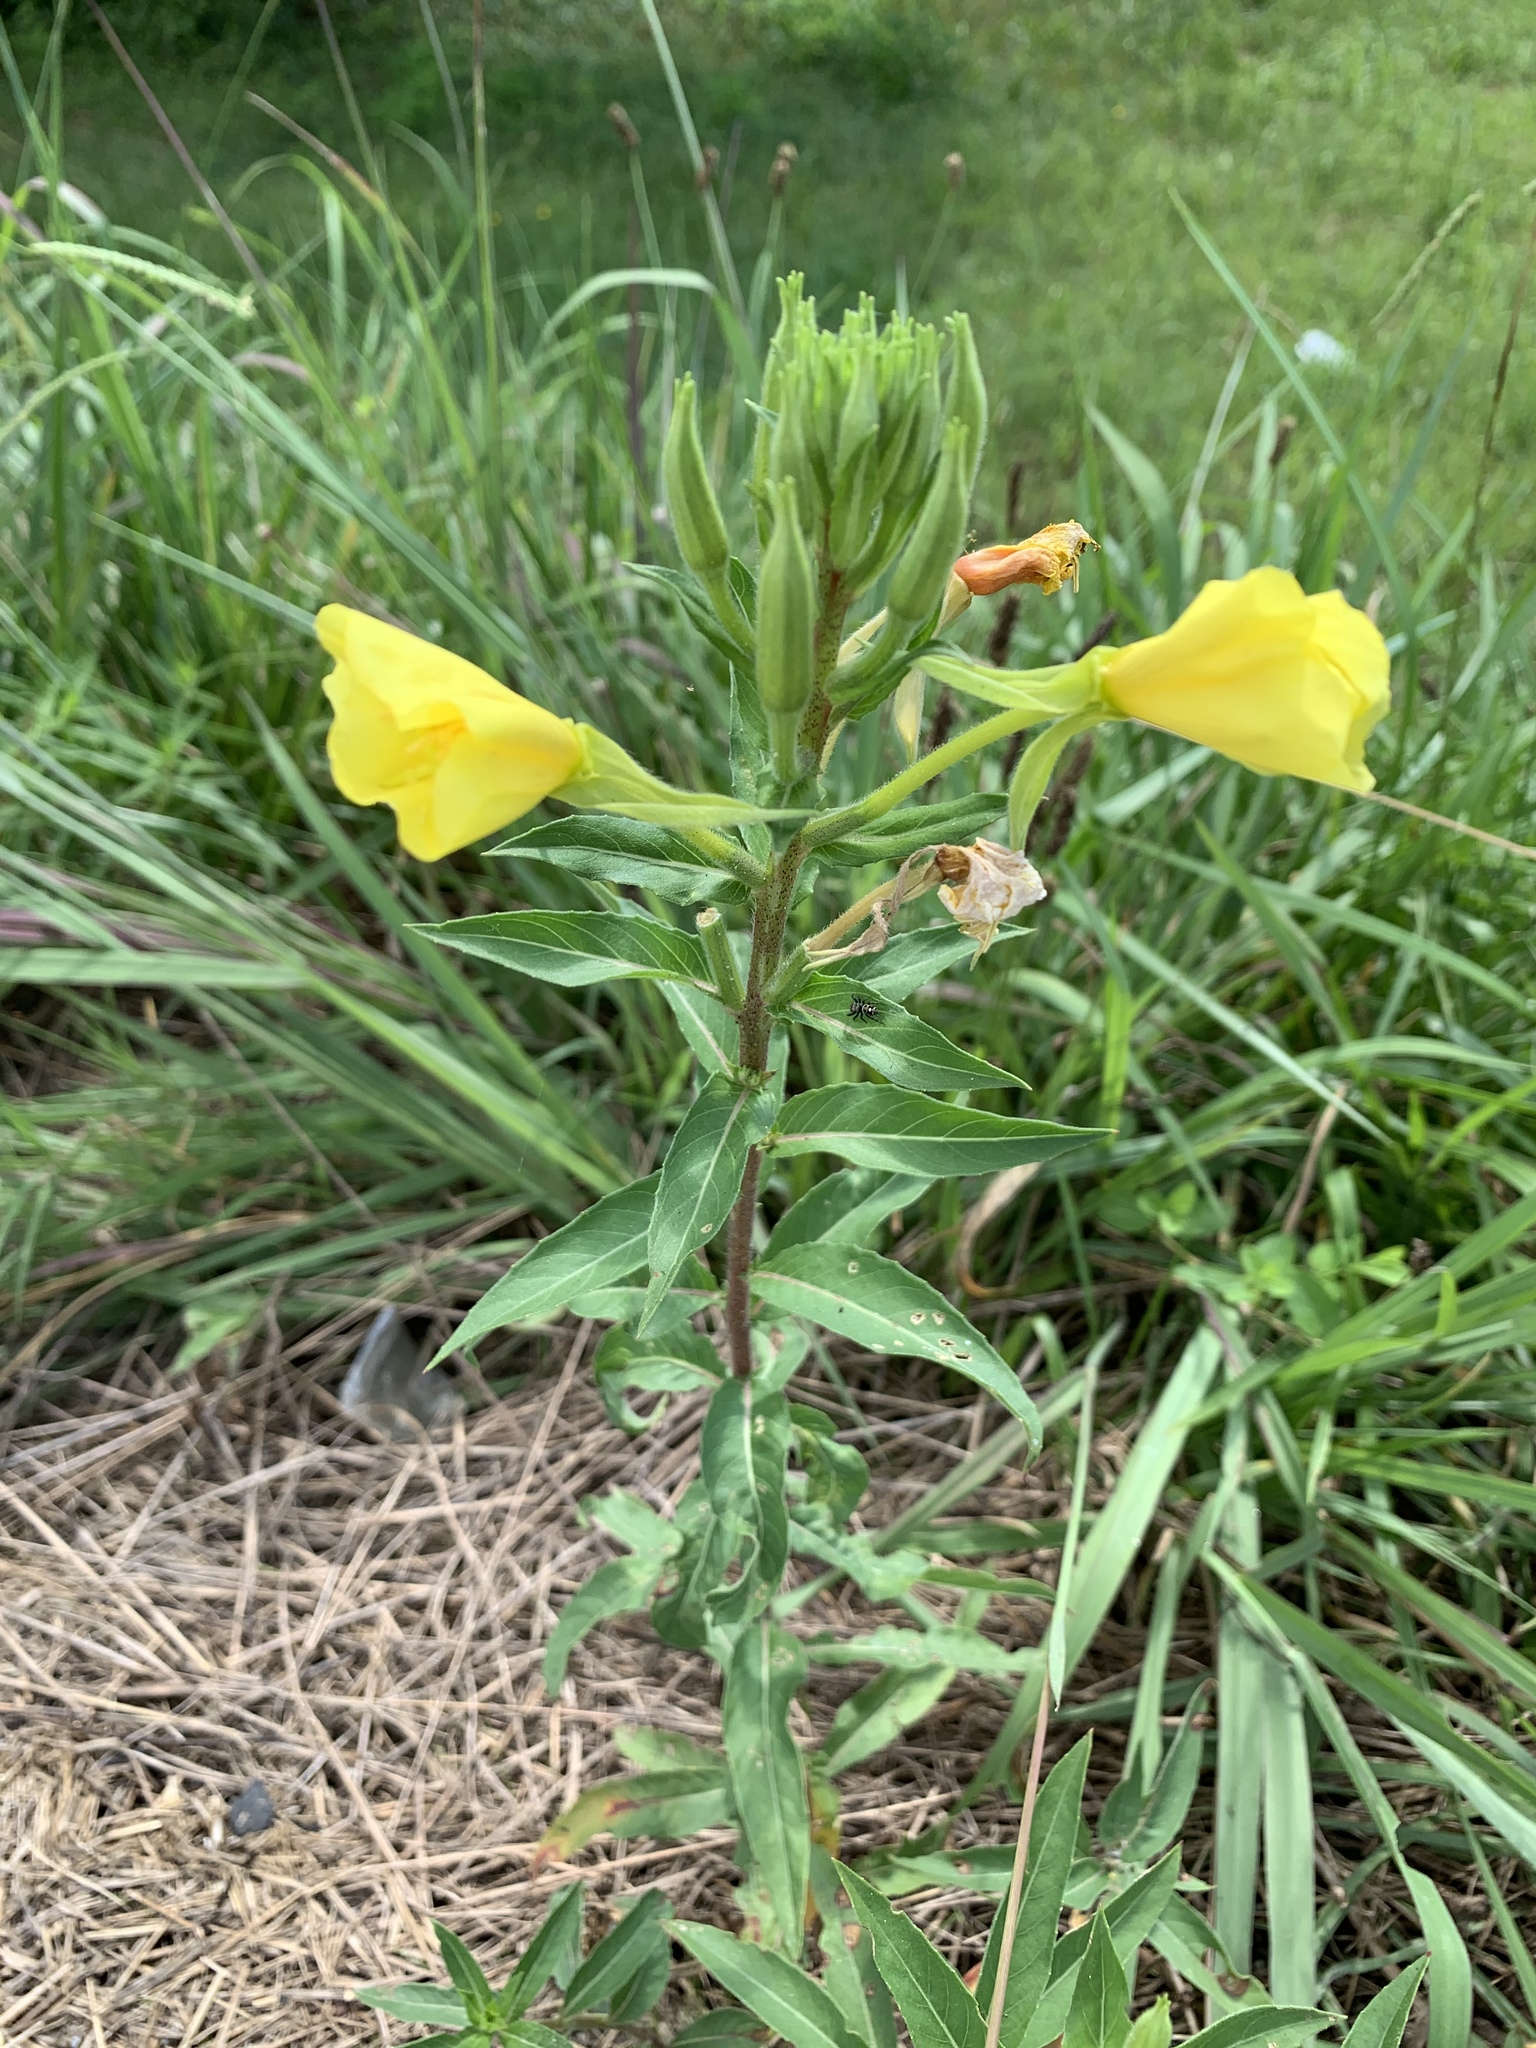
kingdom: Plantae
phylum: Tracheophyta
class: Magnoliopsida
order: Myrtales
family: Onagraceae
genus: Oenothera
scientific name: Oenothera biennis
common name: Common evening-primrose
